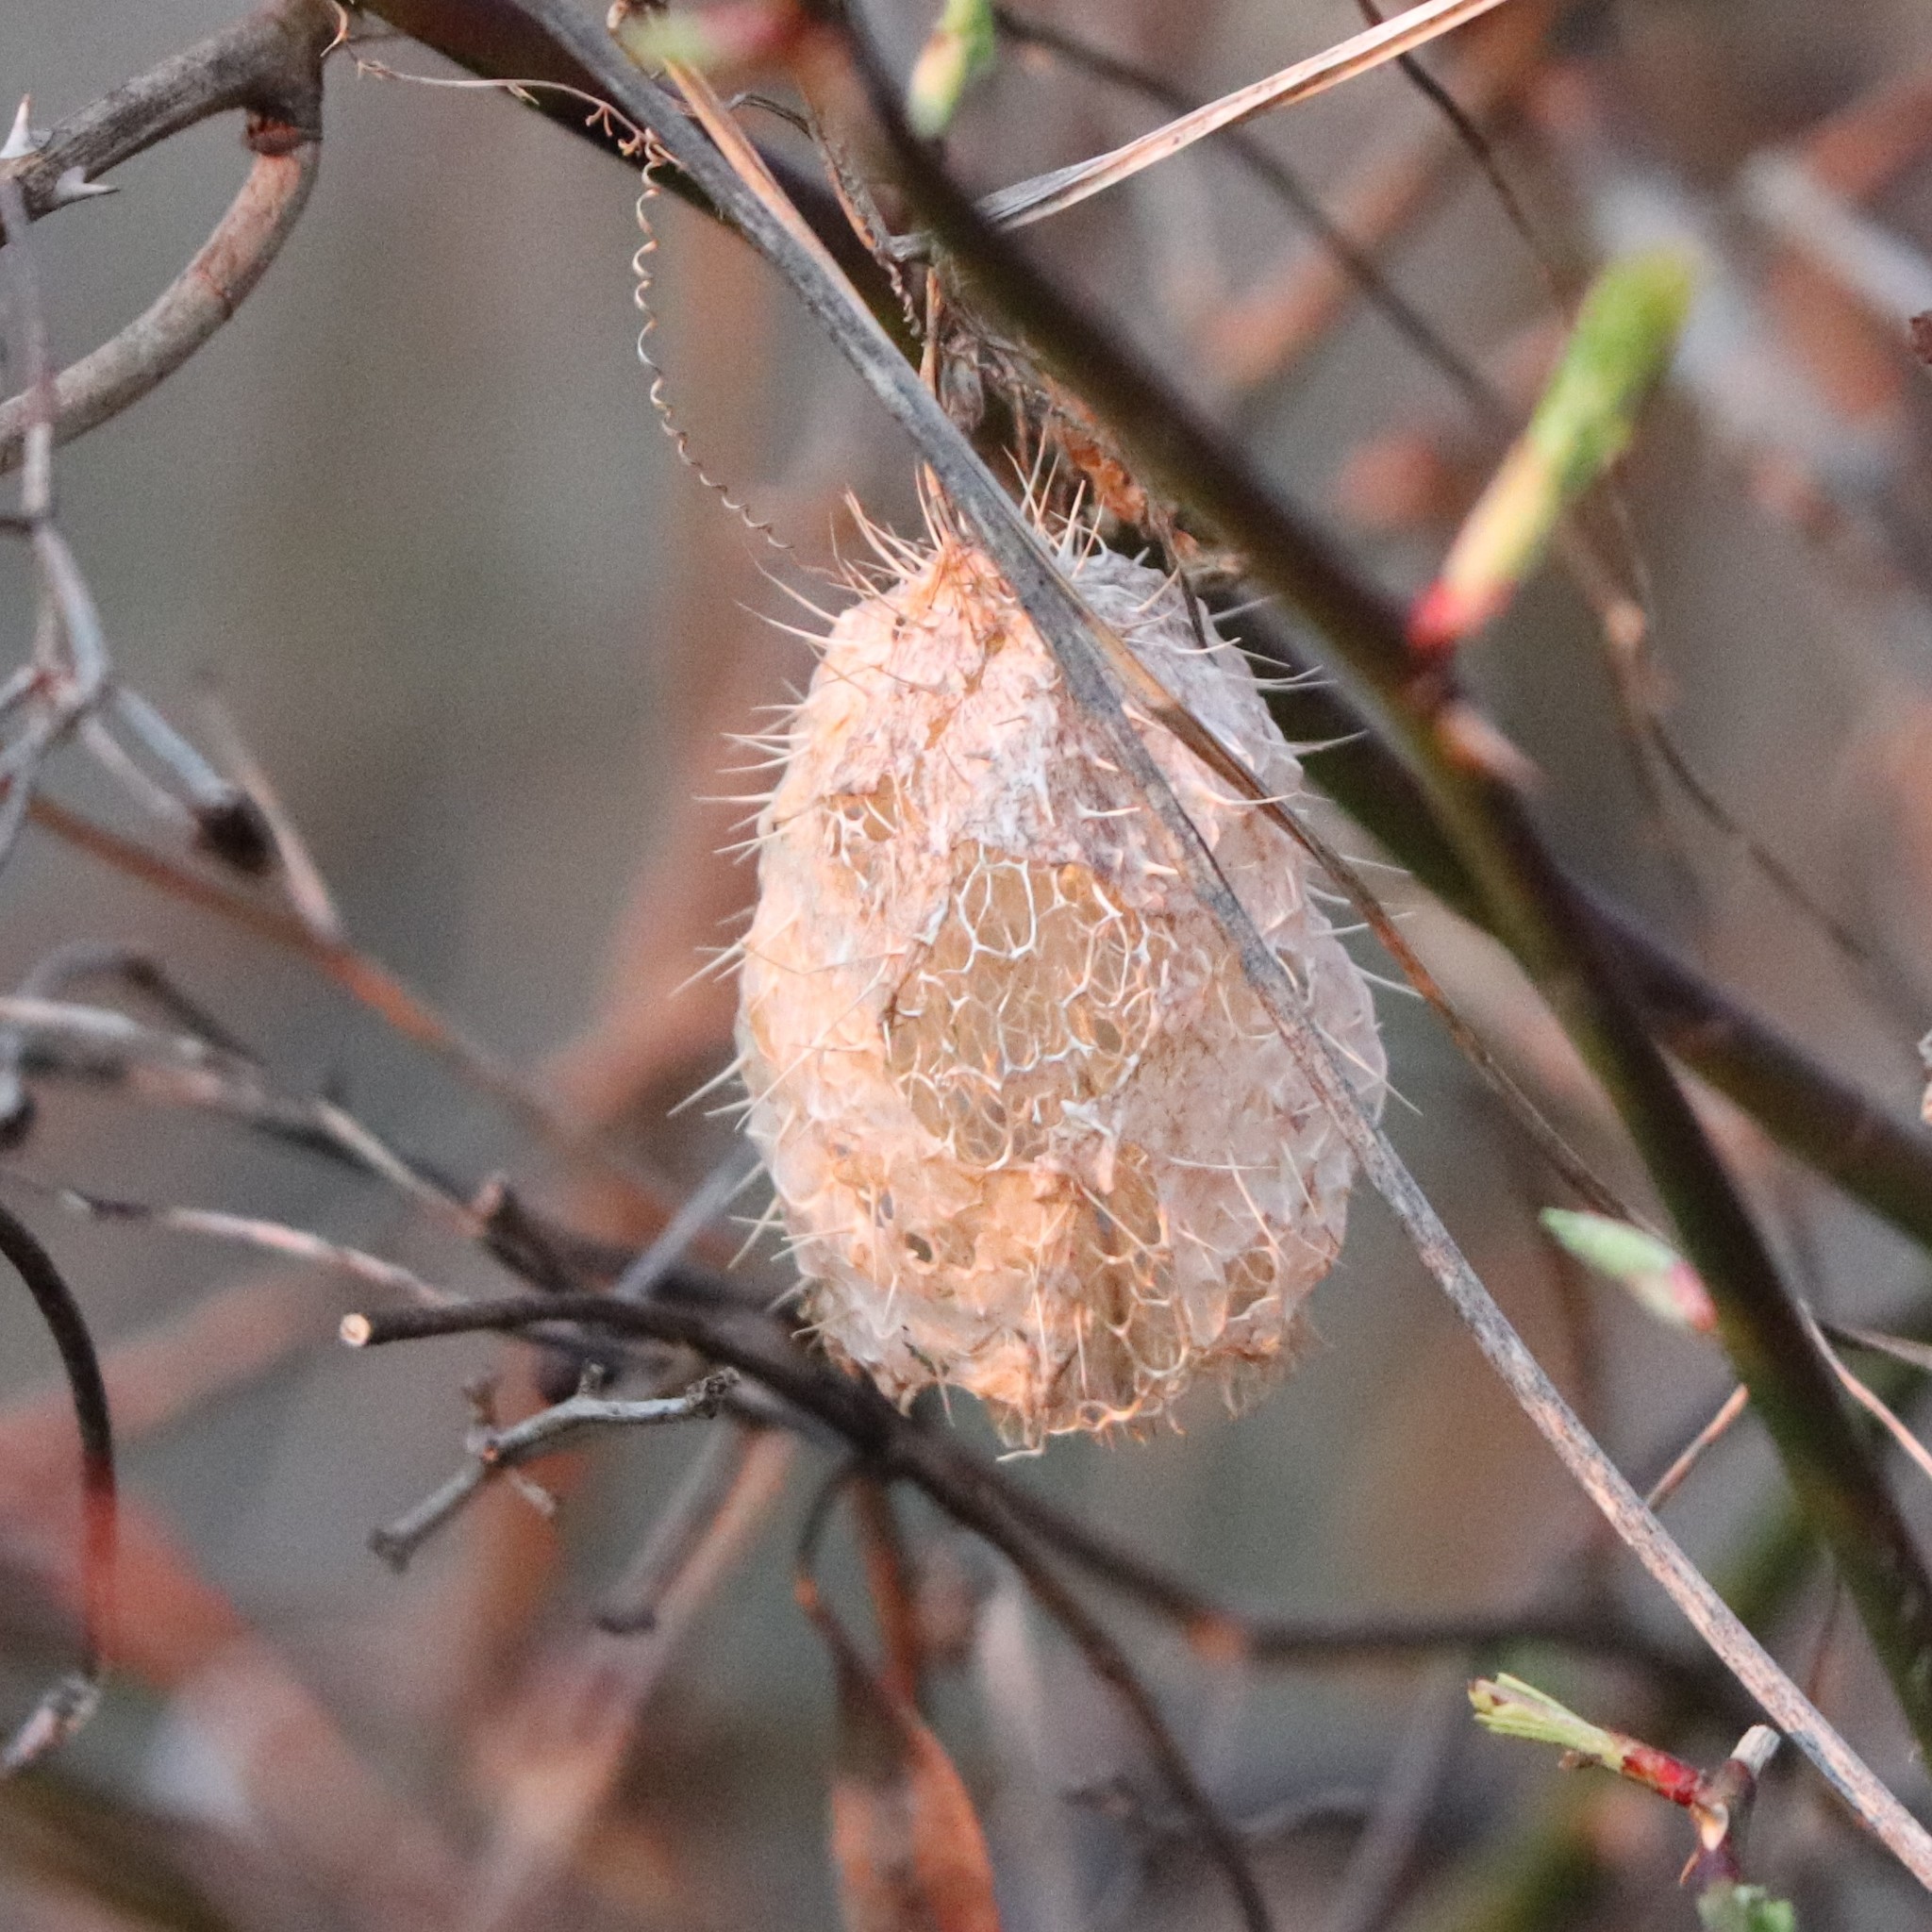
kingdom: Plantae
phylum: Tracheophyta
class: Magnoliopsida
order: Cucurbitales
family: Cucurbitaceae
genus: Echinocystis
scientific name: Echinocystis lobata
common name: Wild cucumber
